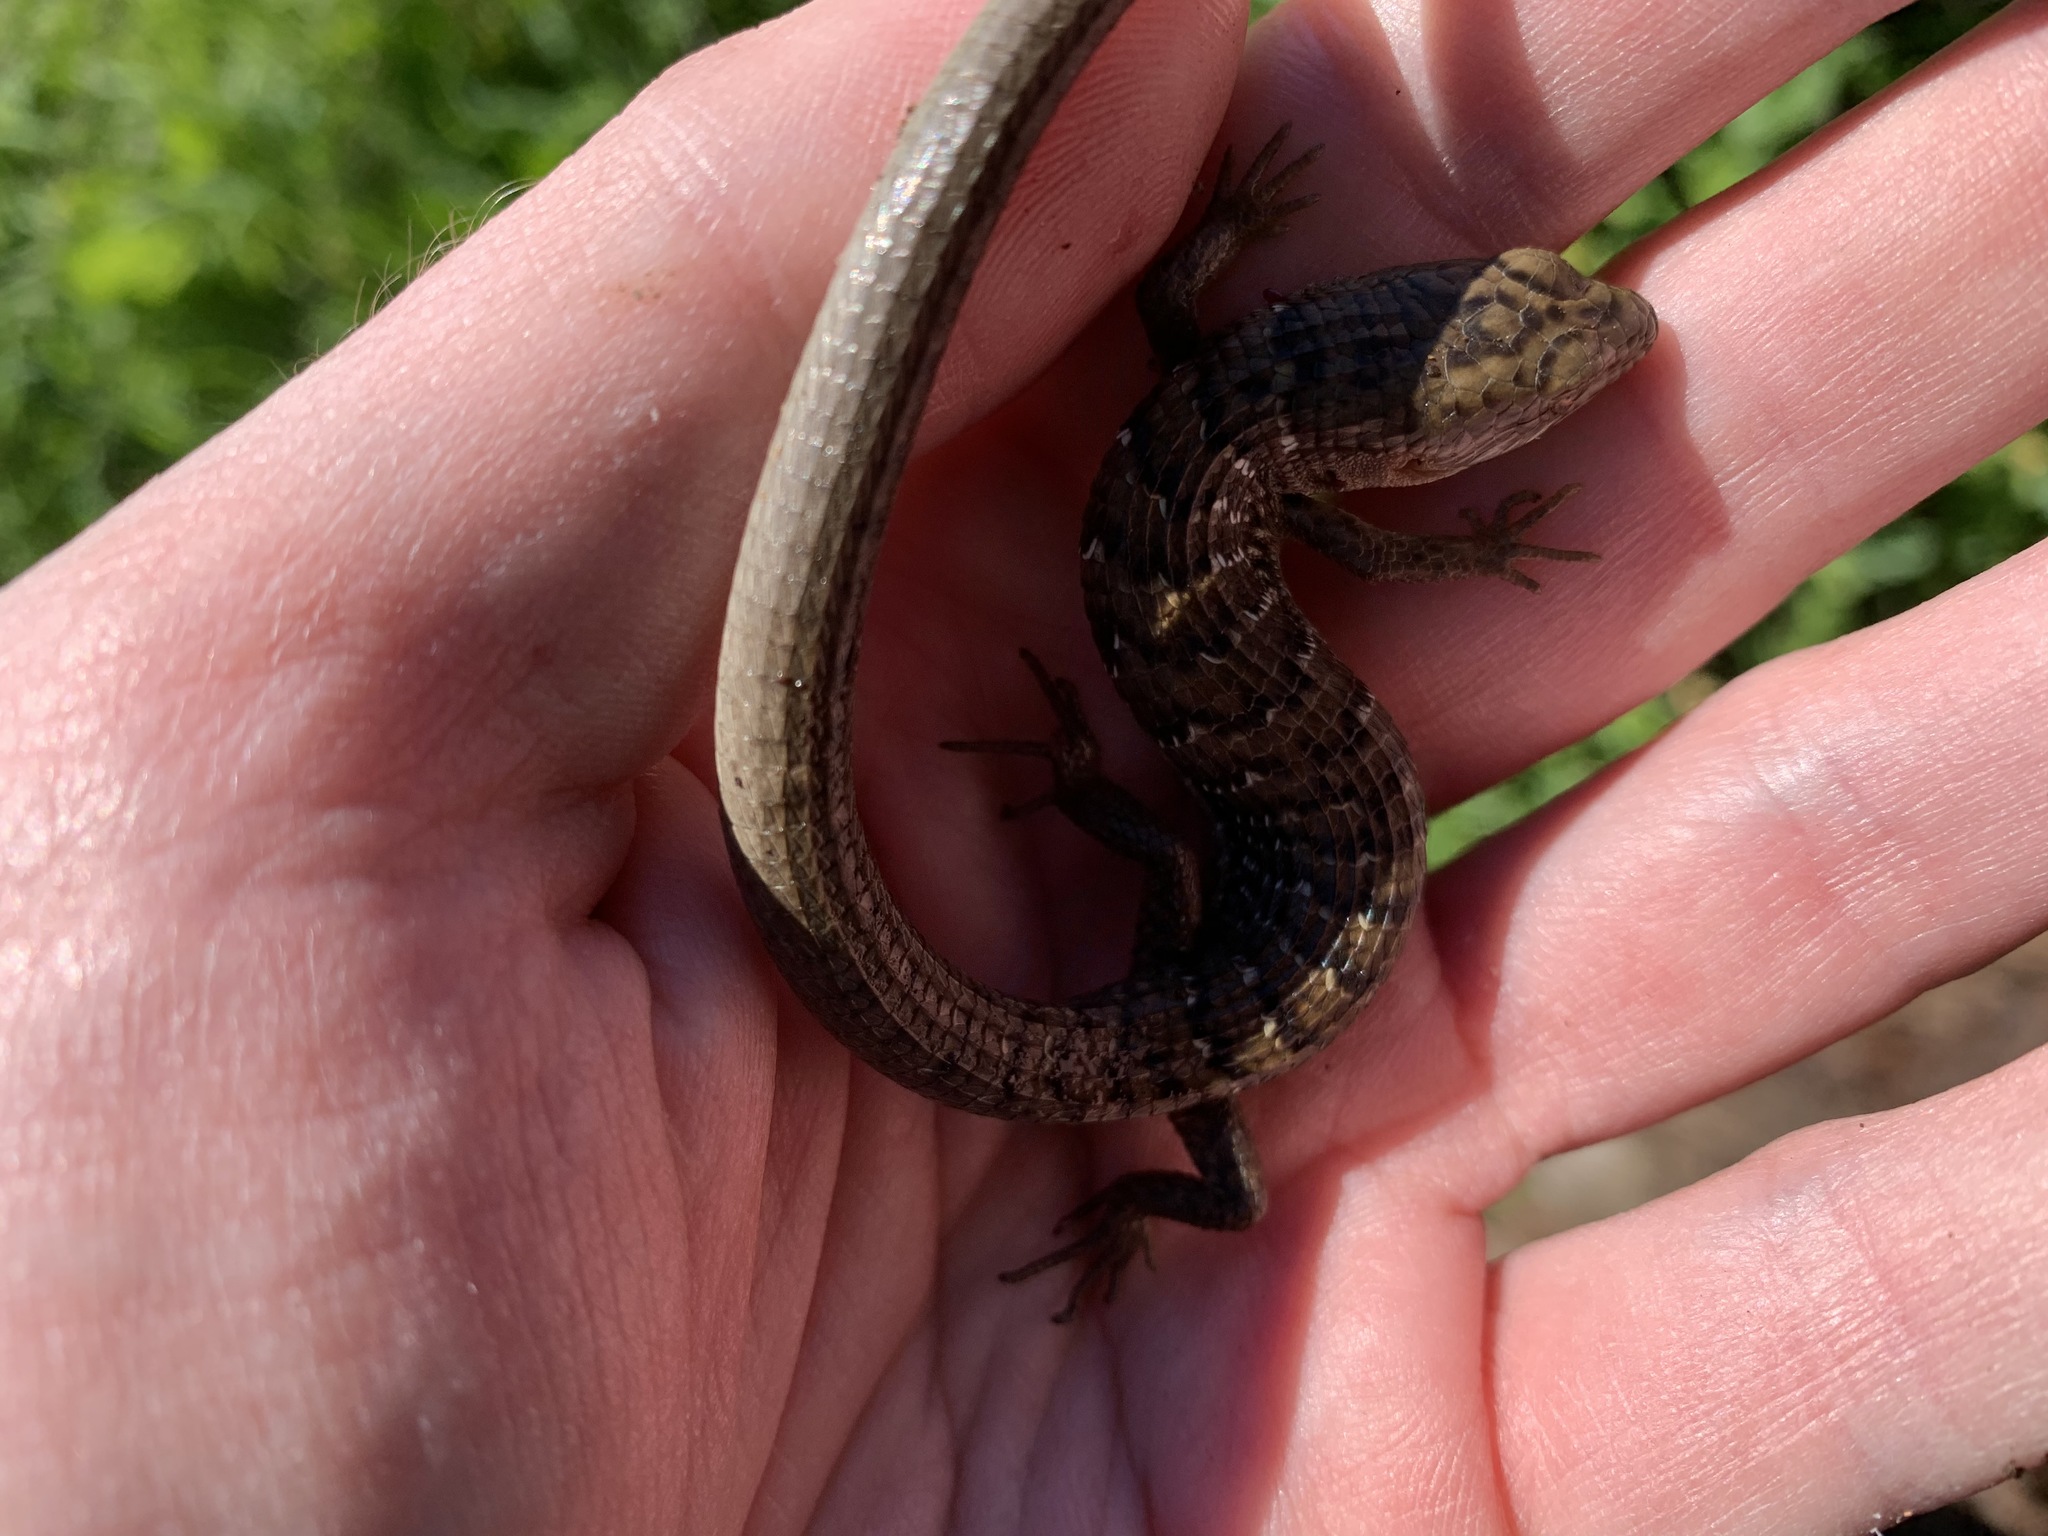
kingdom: Animalia
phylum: Chordata
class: Squamata
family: Anguidae
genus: Elgaria
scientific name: Elgaria multicarinata
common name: Southern alligator lizard
